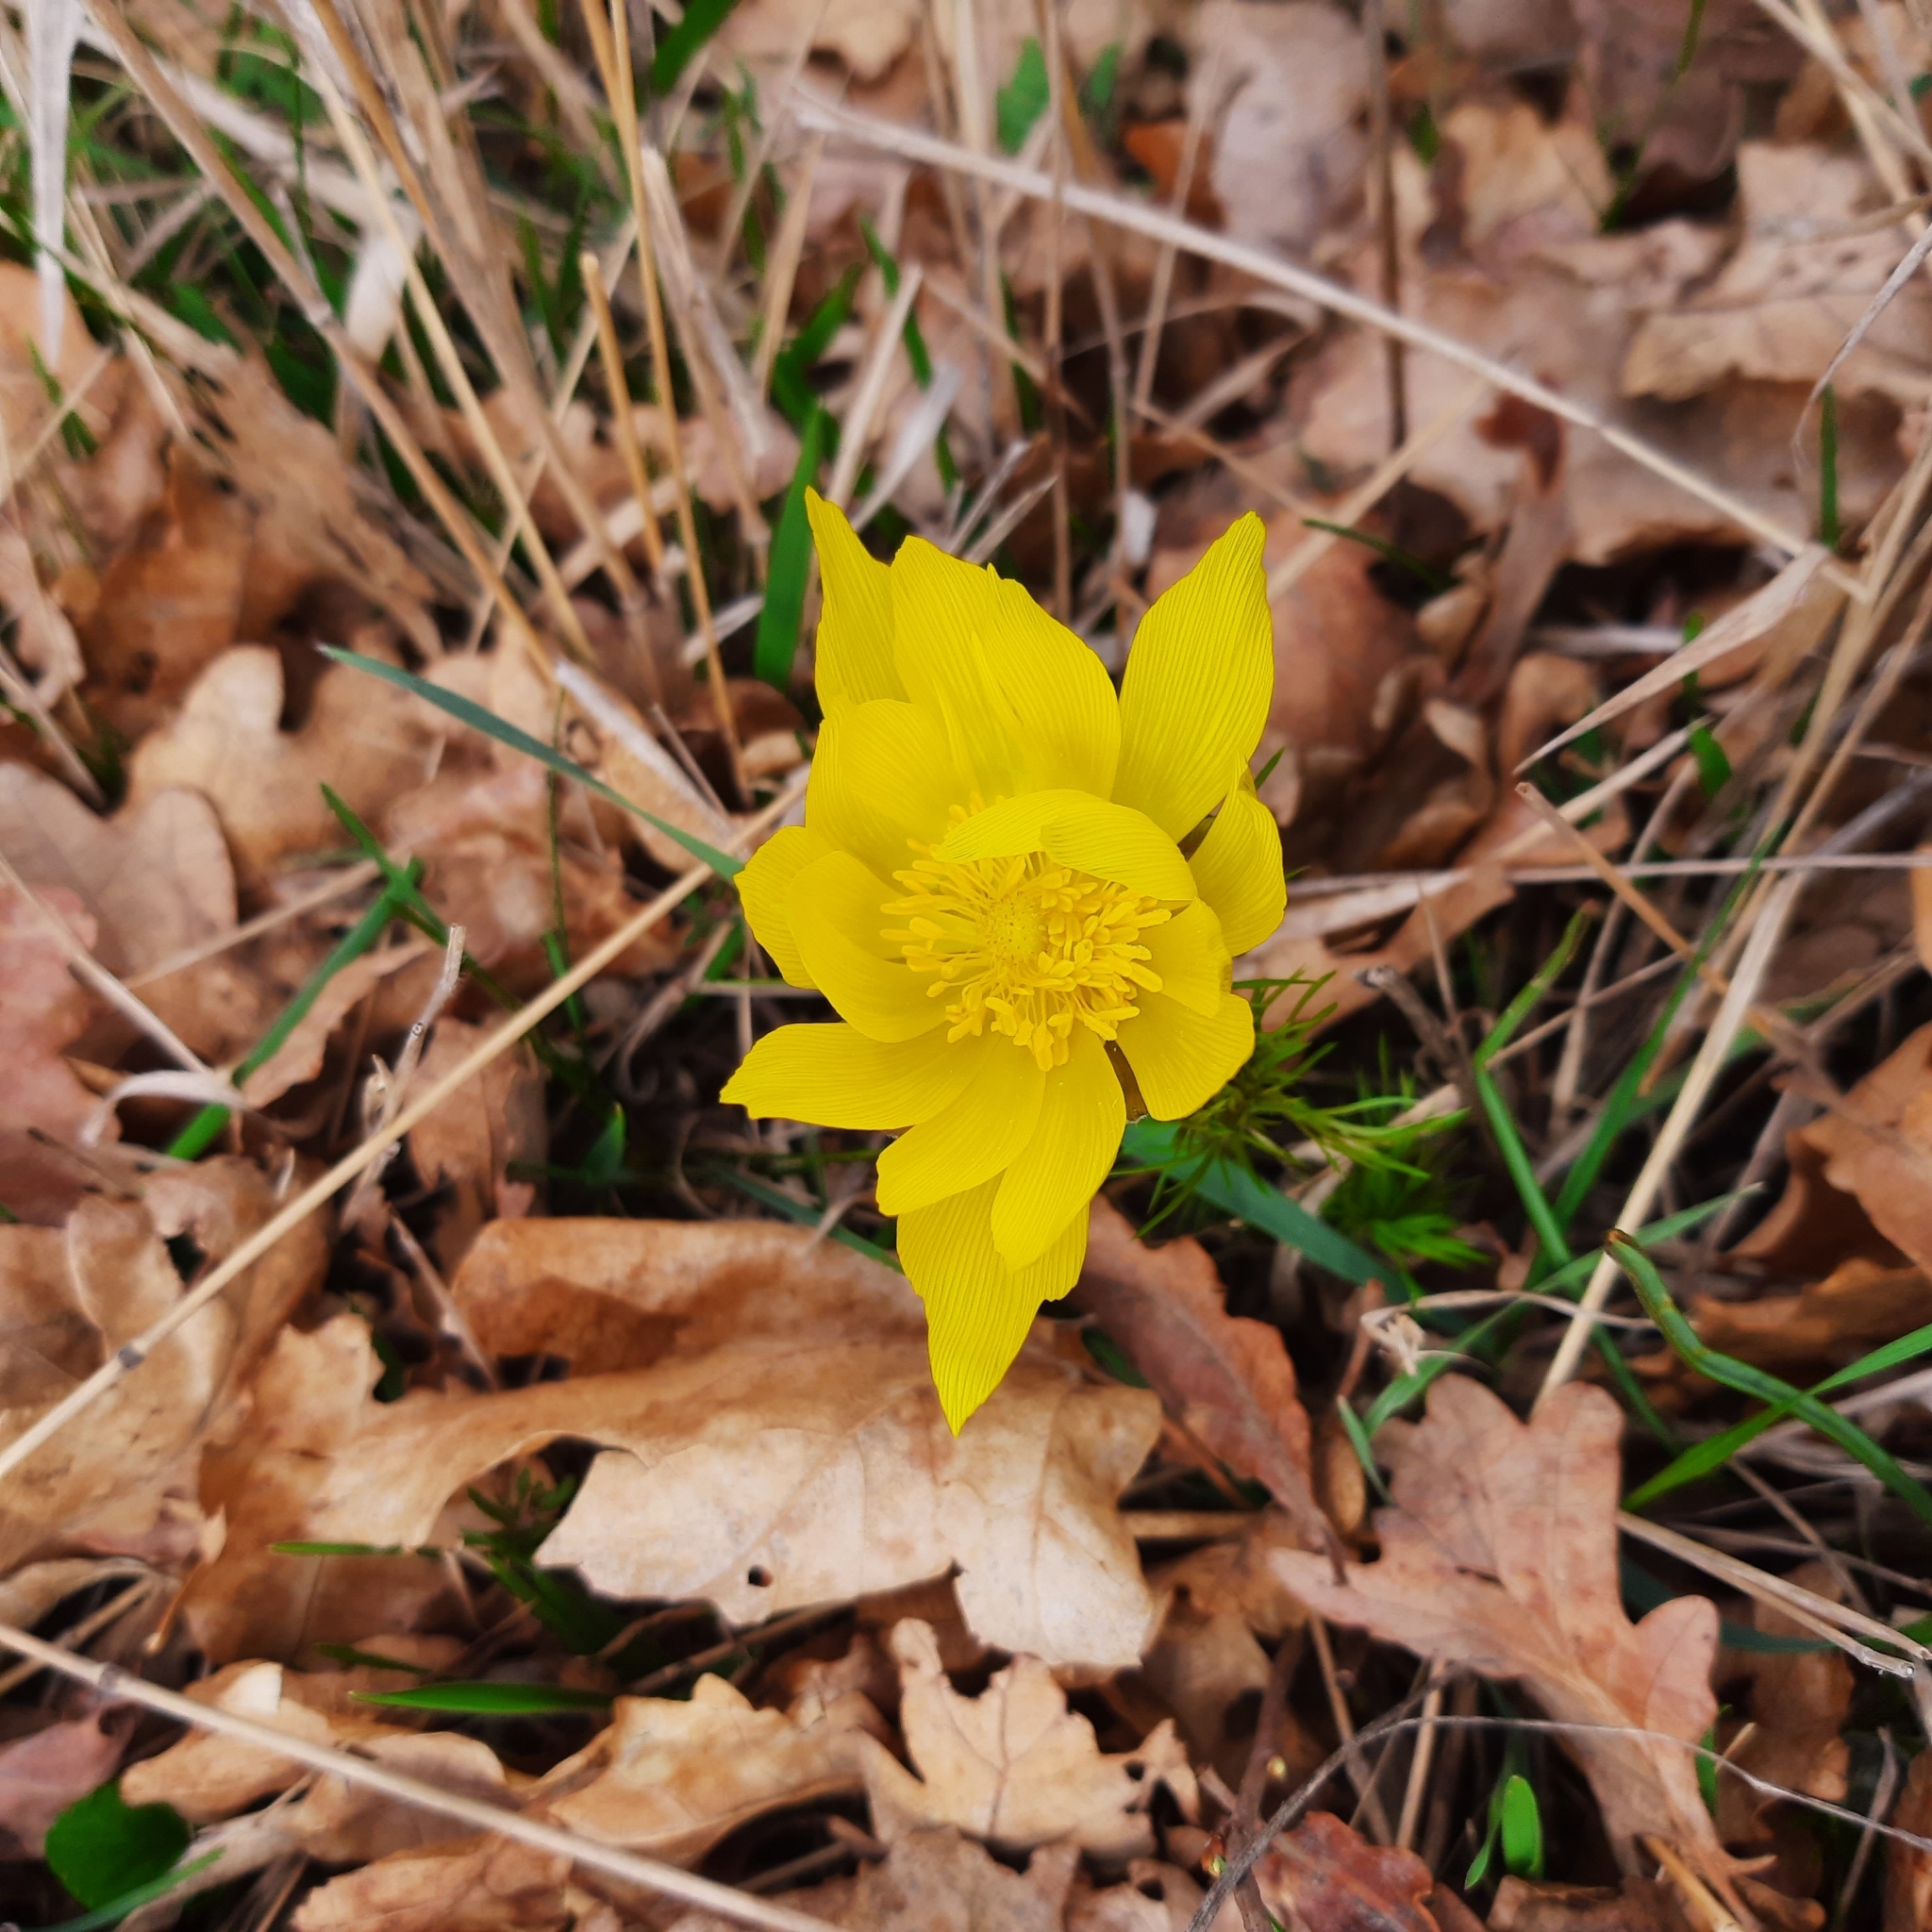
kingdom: Plantae
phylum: Tracheophyta
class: Magnoliopsida
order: Ranunculales
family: Ranunculaceae
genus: Adonis
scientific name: Adonis vernalis
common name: Yellow pheasants-eye
